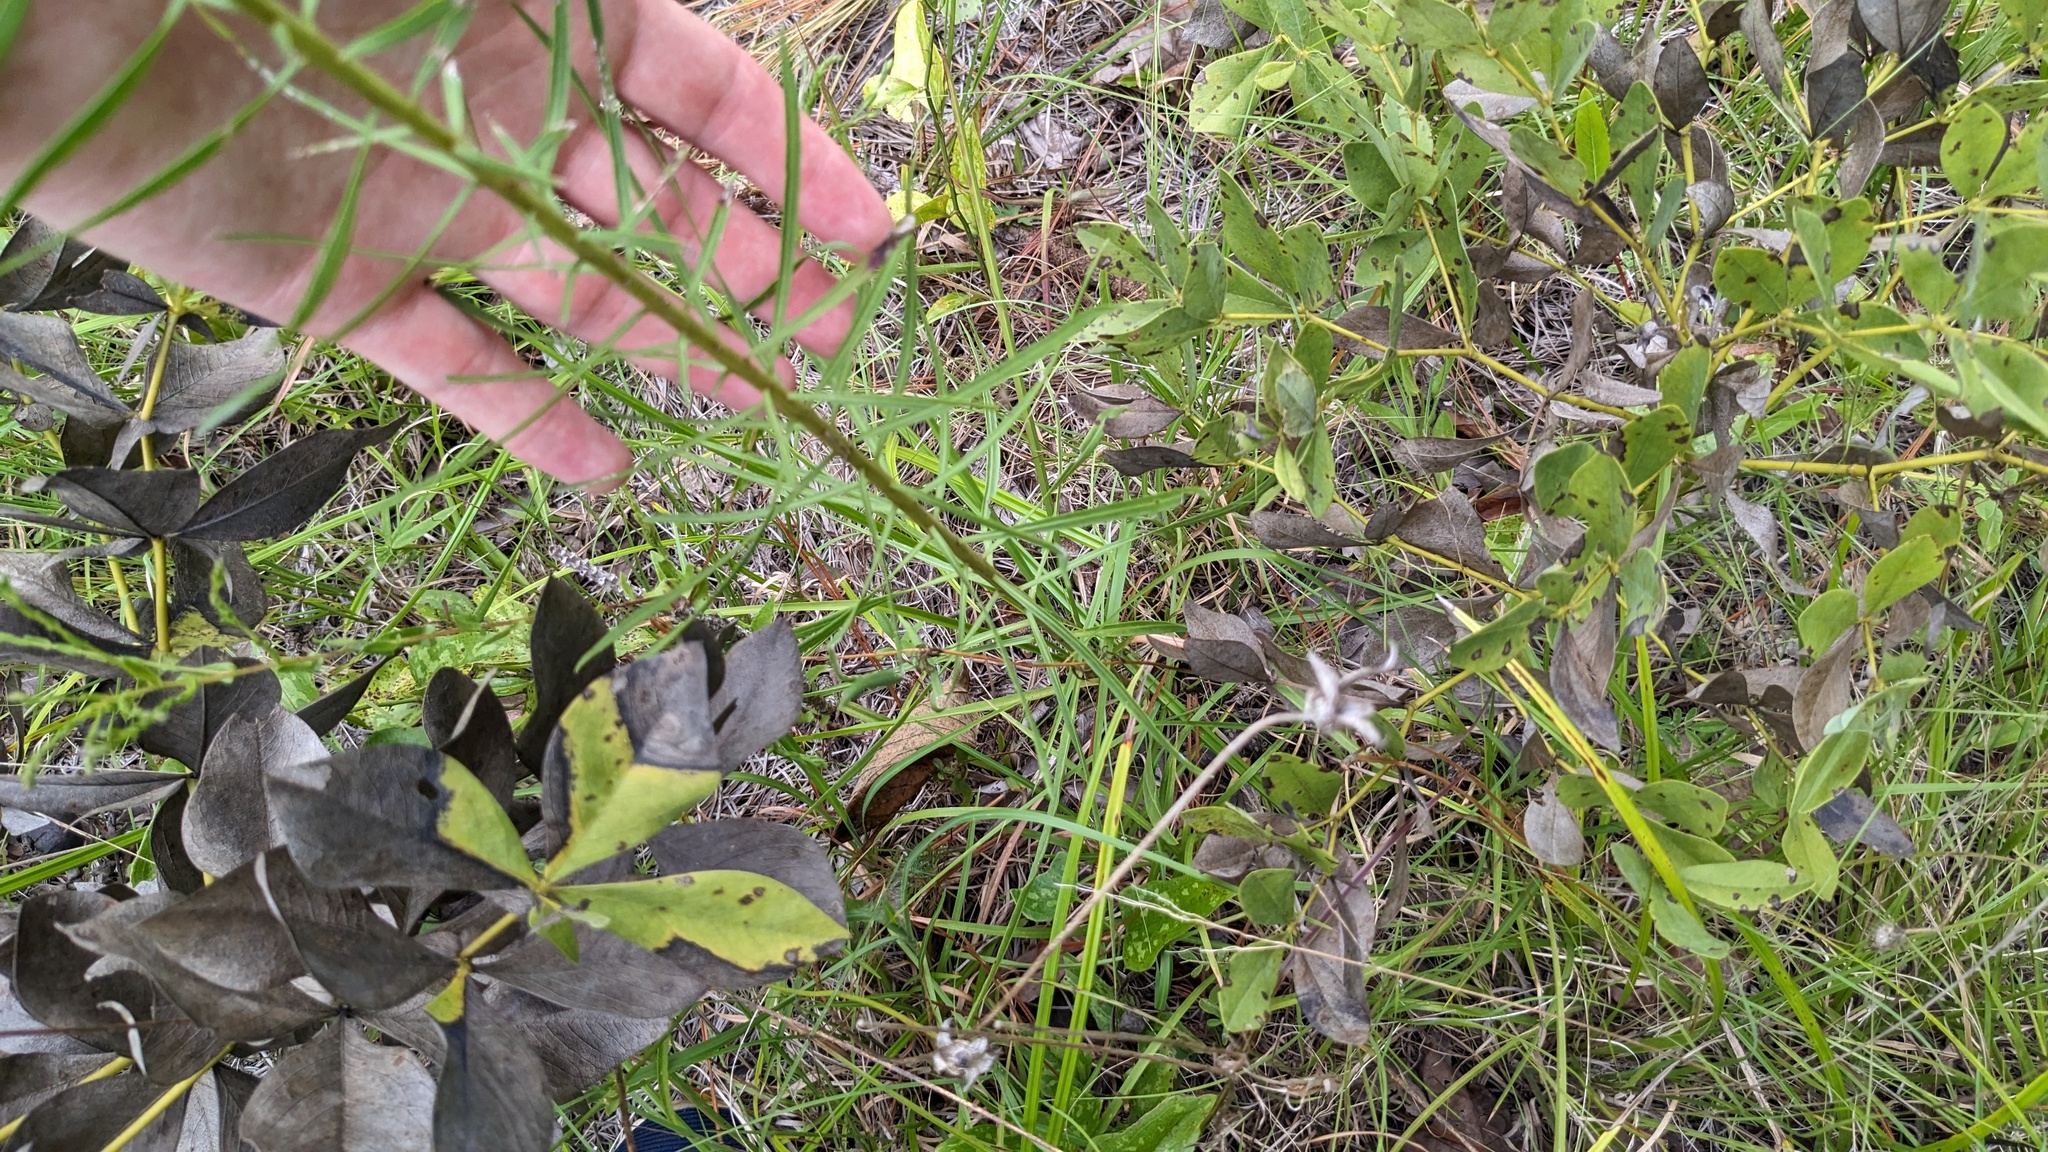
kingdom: Plantae
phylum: Tracheophyta
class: Magnoliopsida
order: Asterales
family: Asteraceae
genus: Liatris
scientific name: Liatris aspera
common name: Lacerate blazing-star
